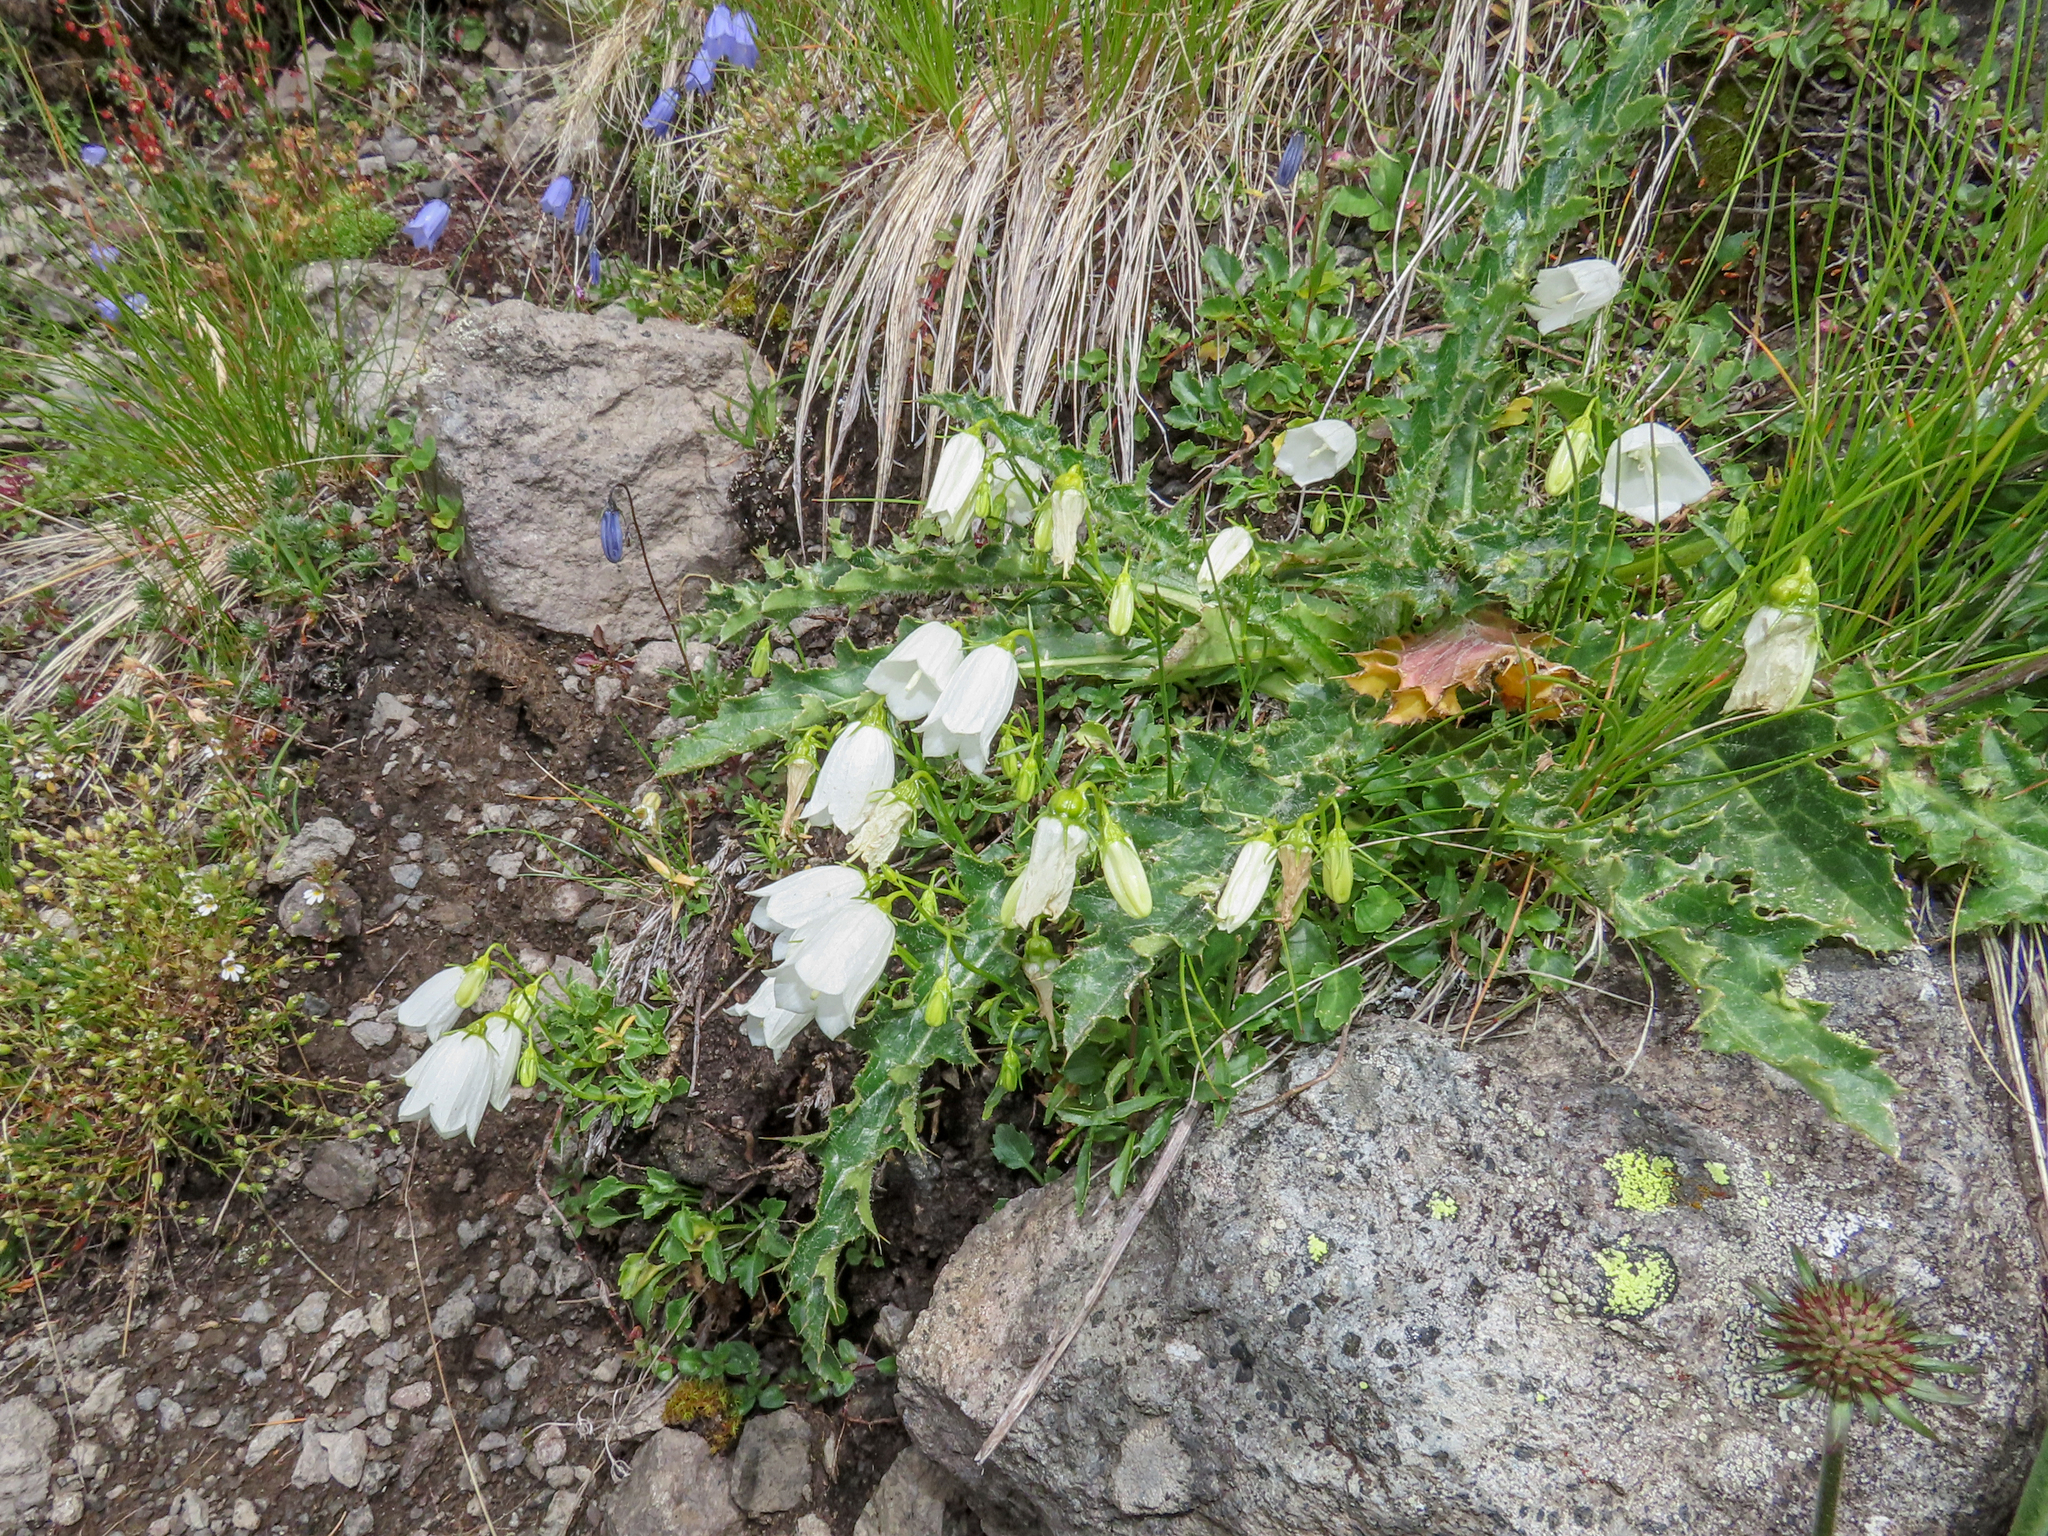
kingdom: Plantae
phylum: Tracheophyta
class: Magnoliopsida
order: Asterales
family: Campanulaceae
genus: Campanula
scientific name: Campanula cochleariifolia
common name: Fairies'-thimbles
